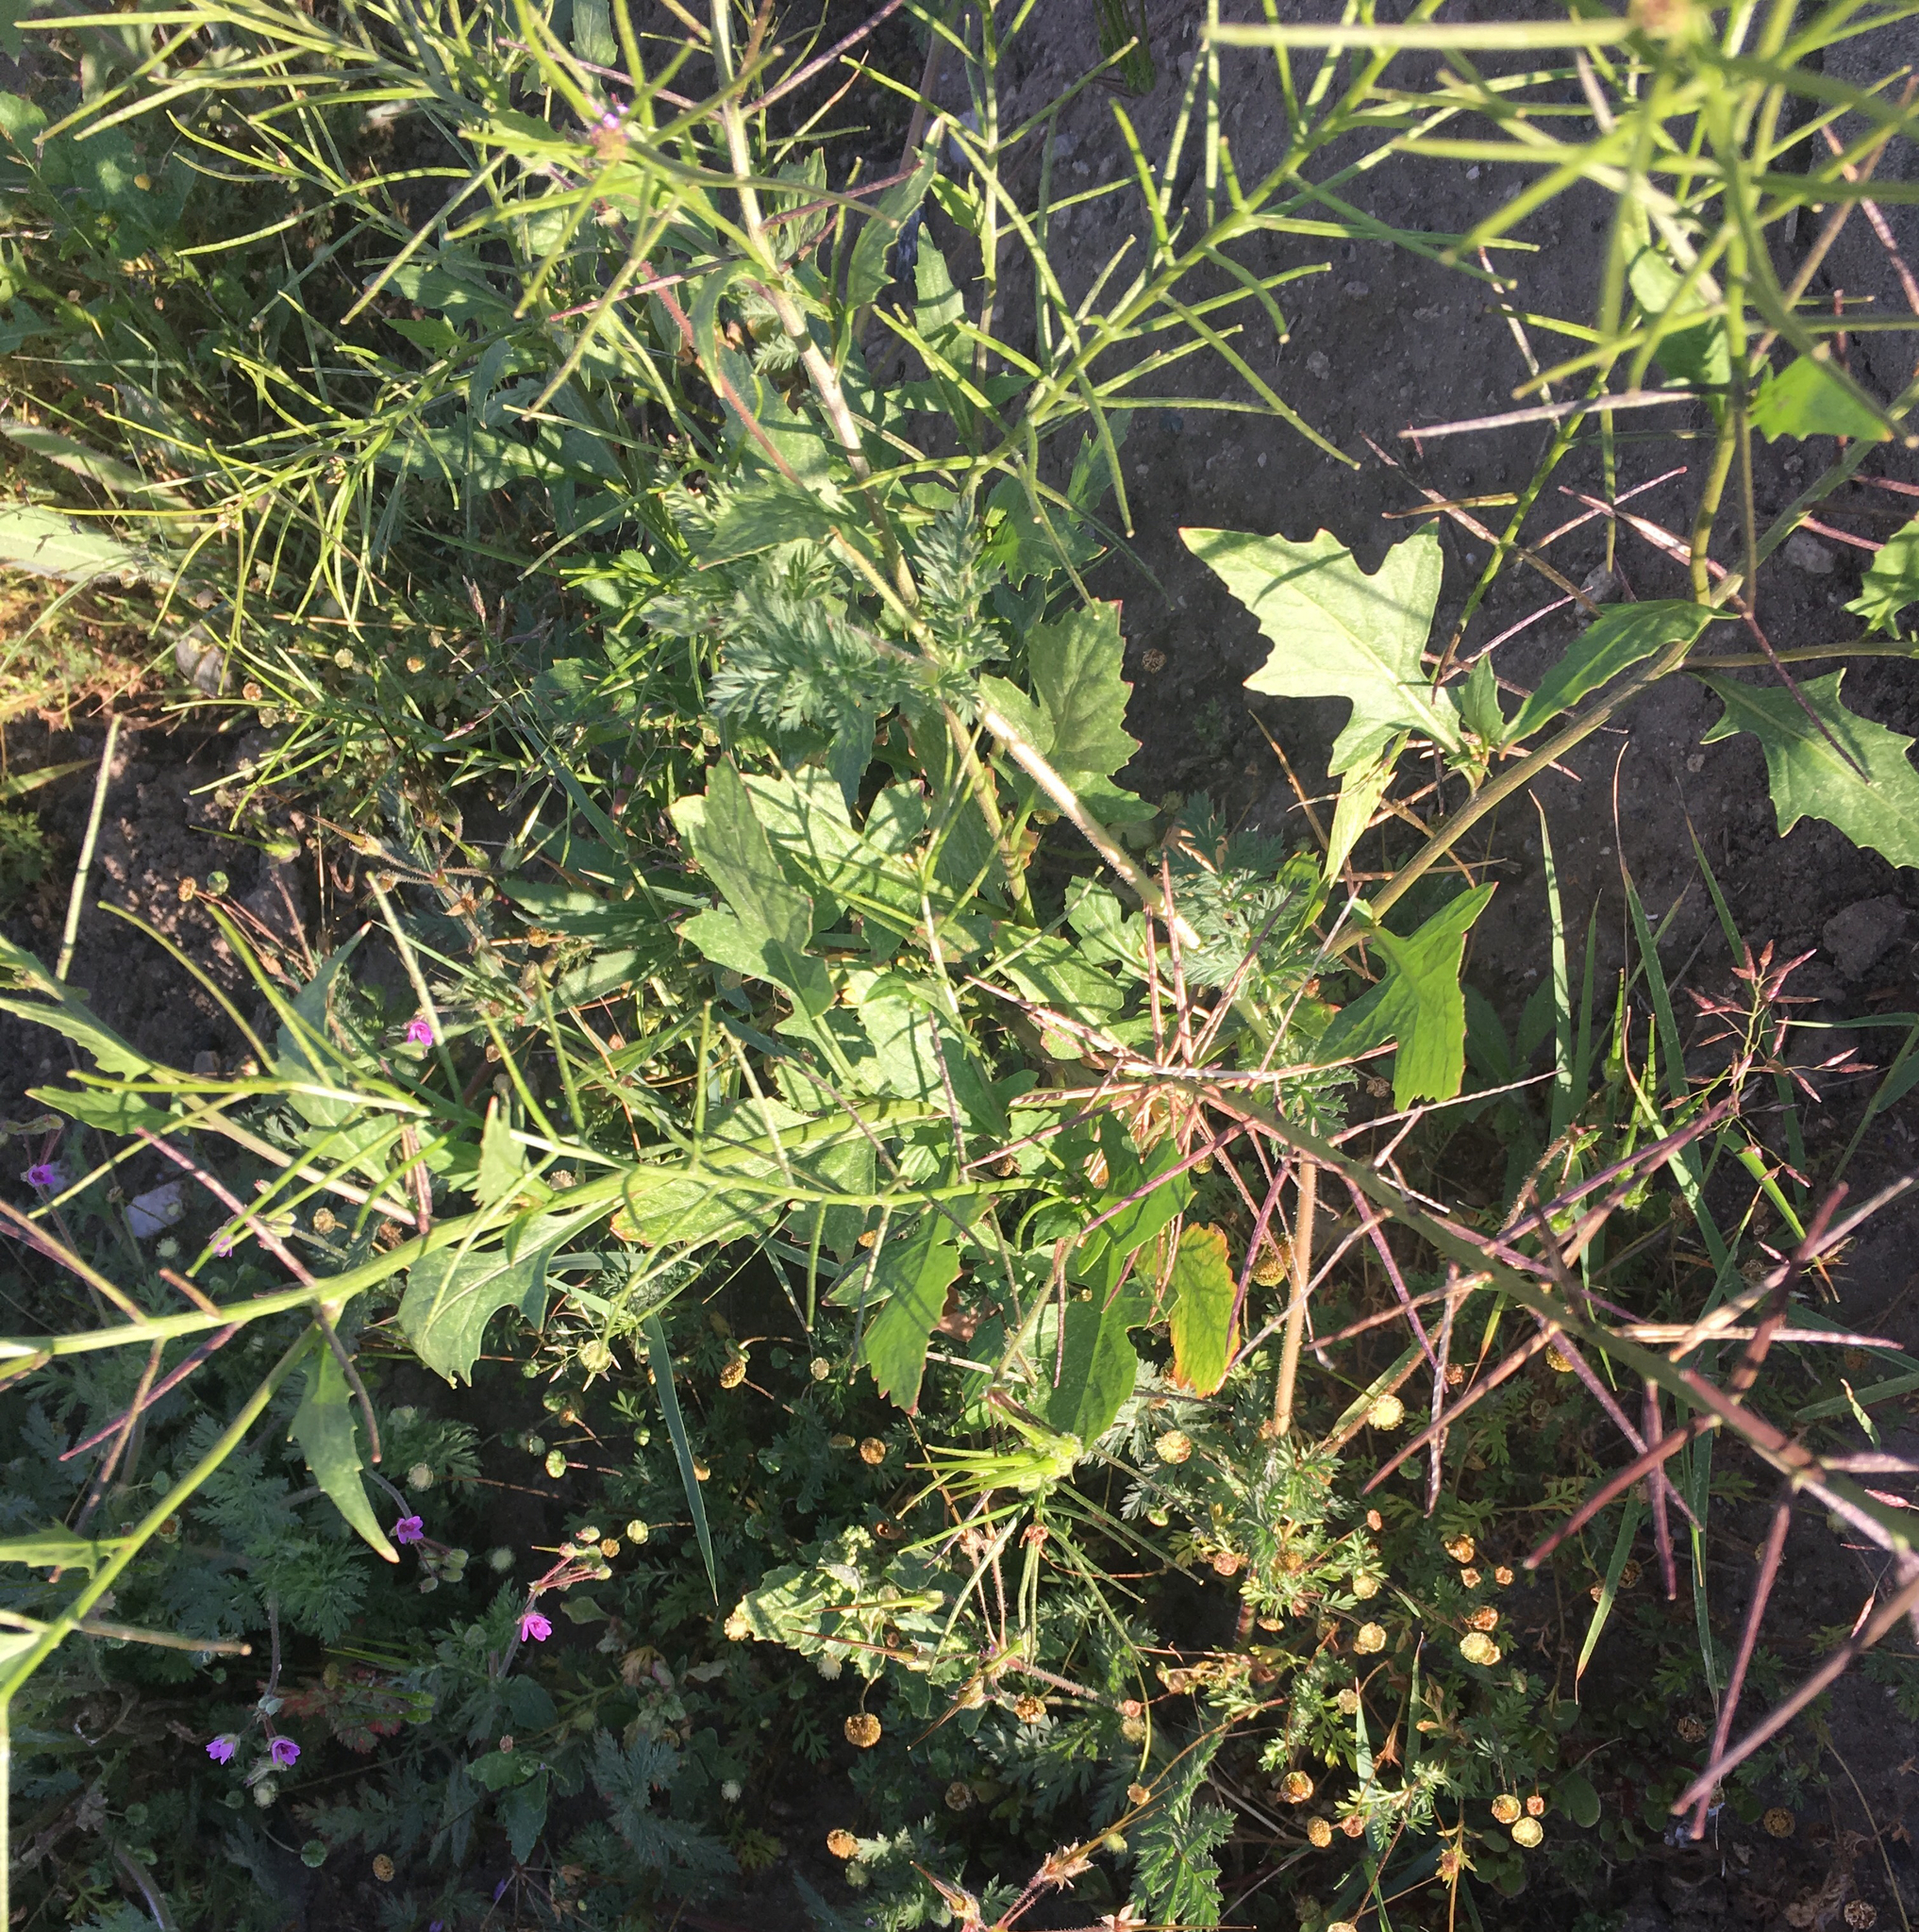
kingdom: Plantae
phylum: Tracheophyta
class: Magnoliopsida
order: Brassicales
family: Brassicaceae
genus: Sisymbrium
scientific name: Sisymbrium irio
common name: London rocket
